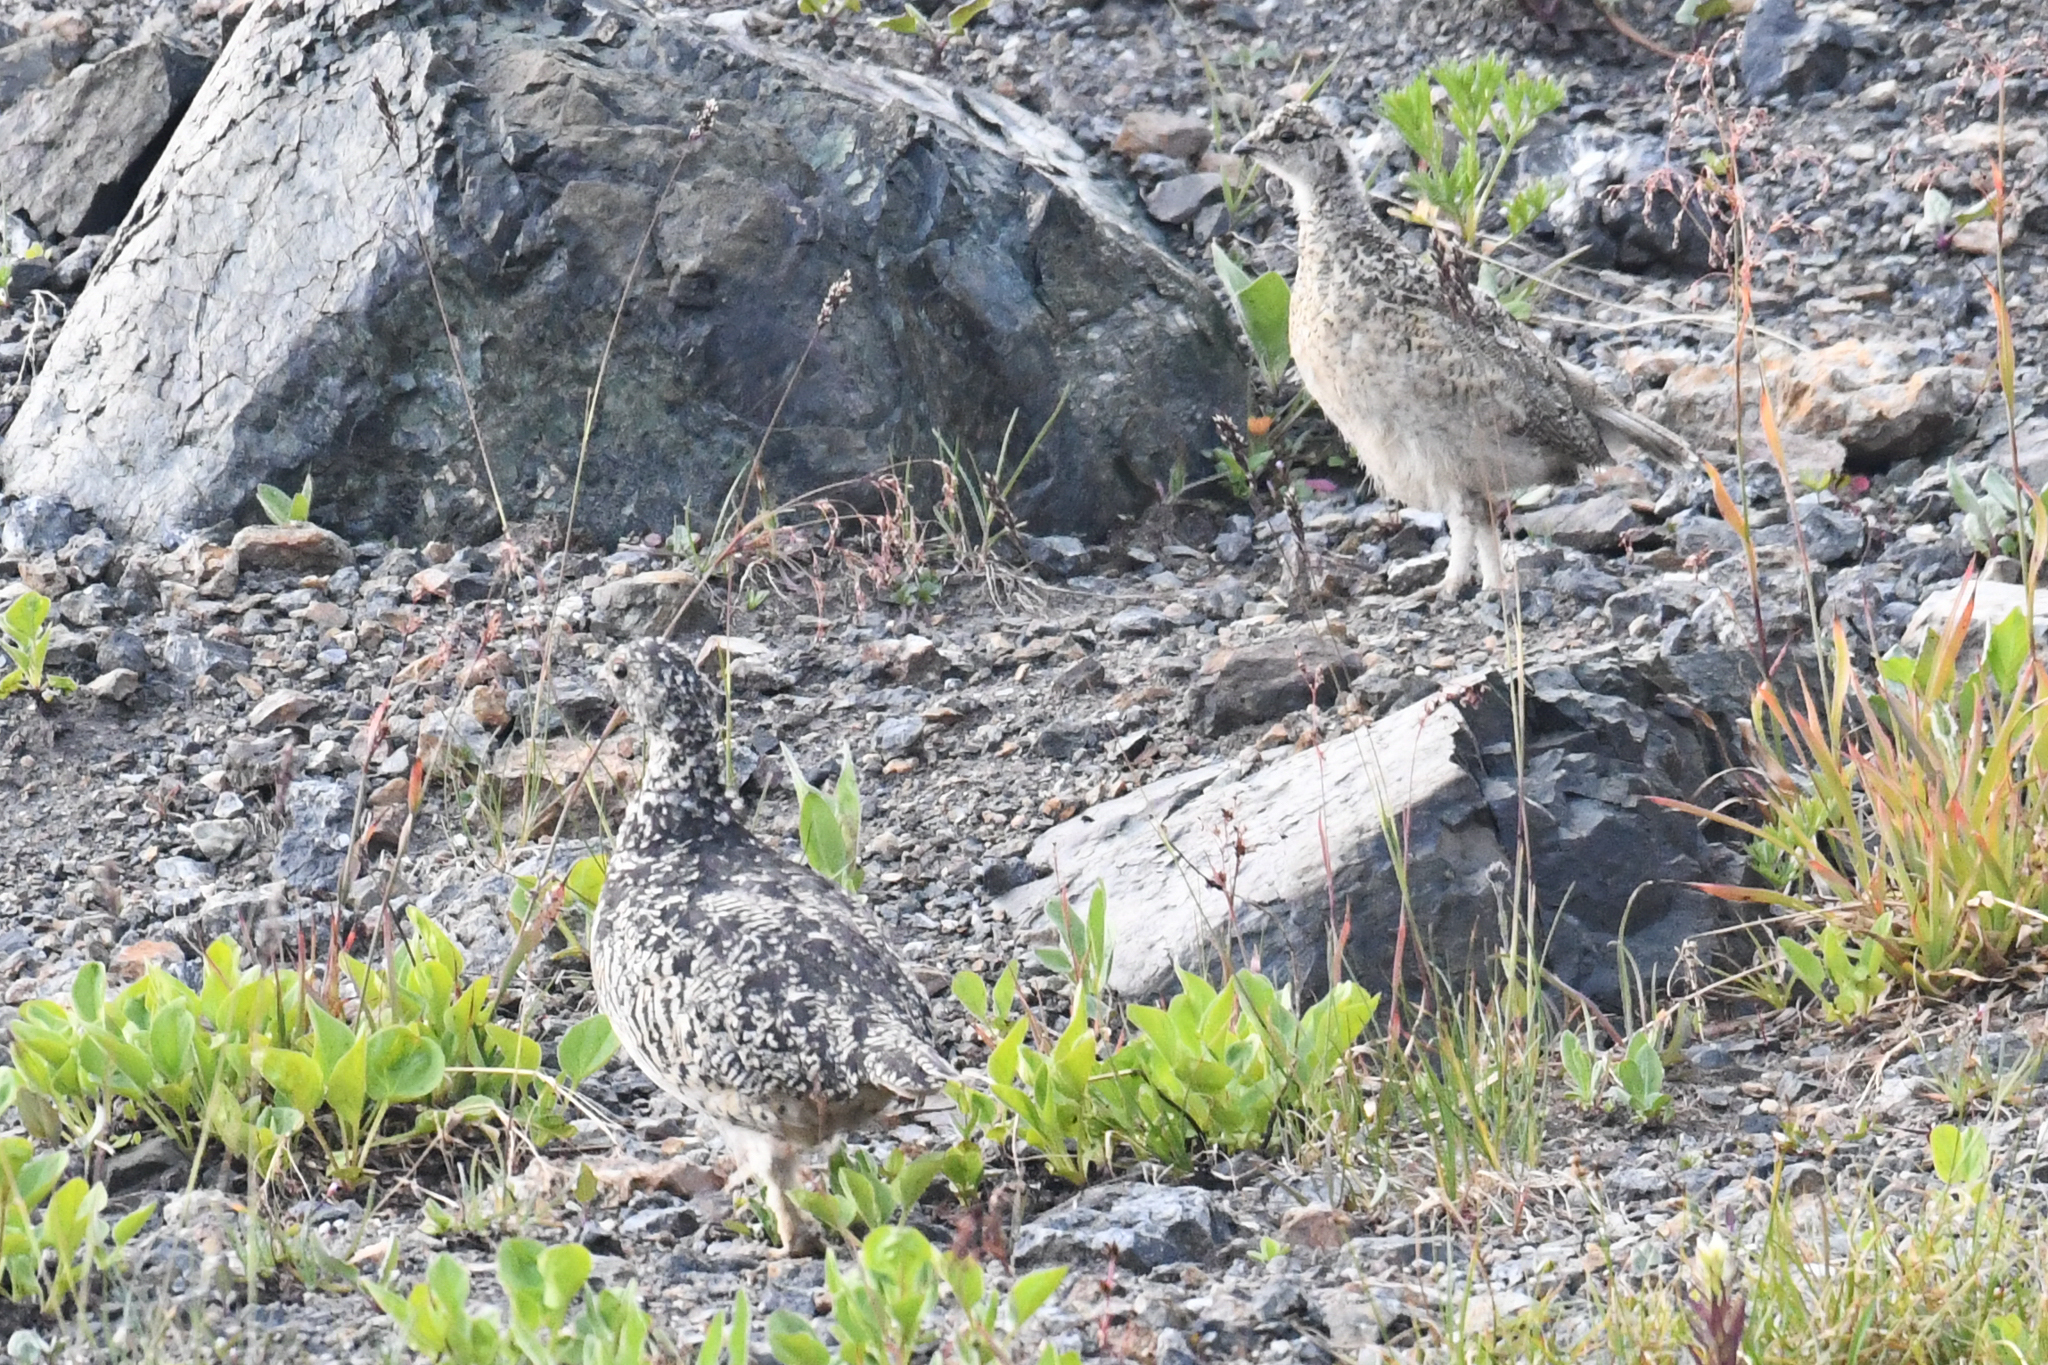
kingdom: Animalia
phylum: Chordata
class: Aves
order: Galliformes
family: Phasianidae
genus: Lagopus
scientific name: Lagopus leucura
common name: White-tailed ptarmigan
